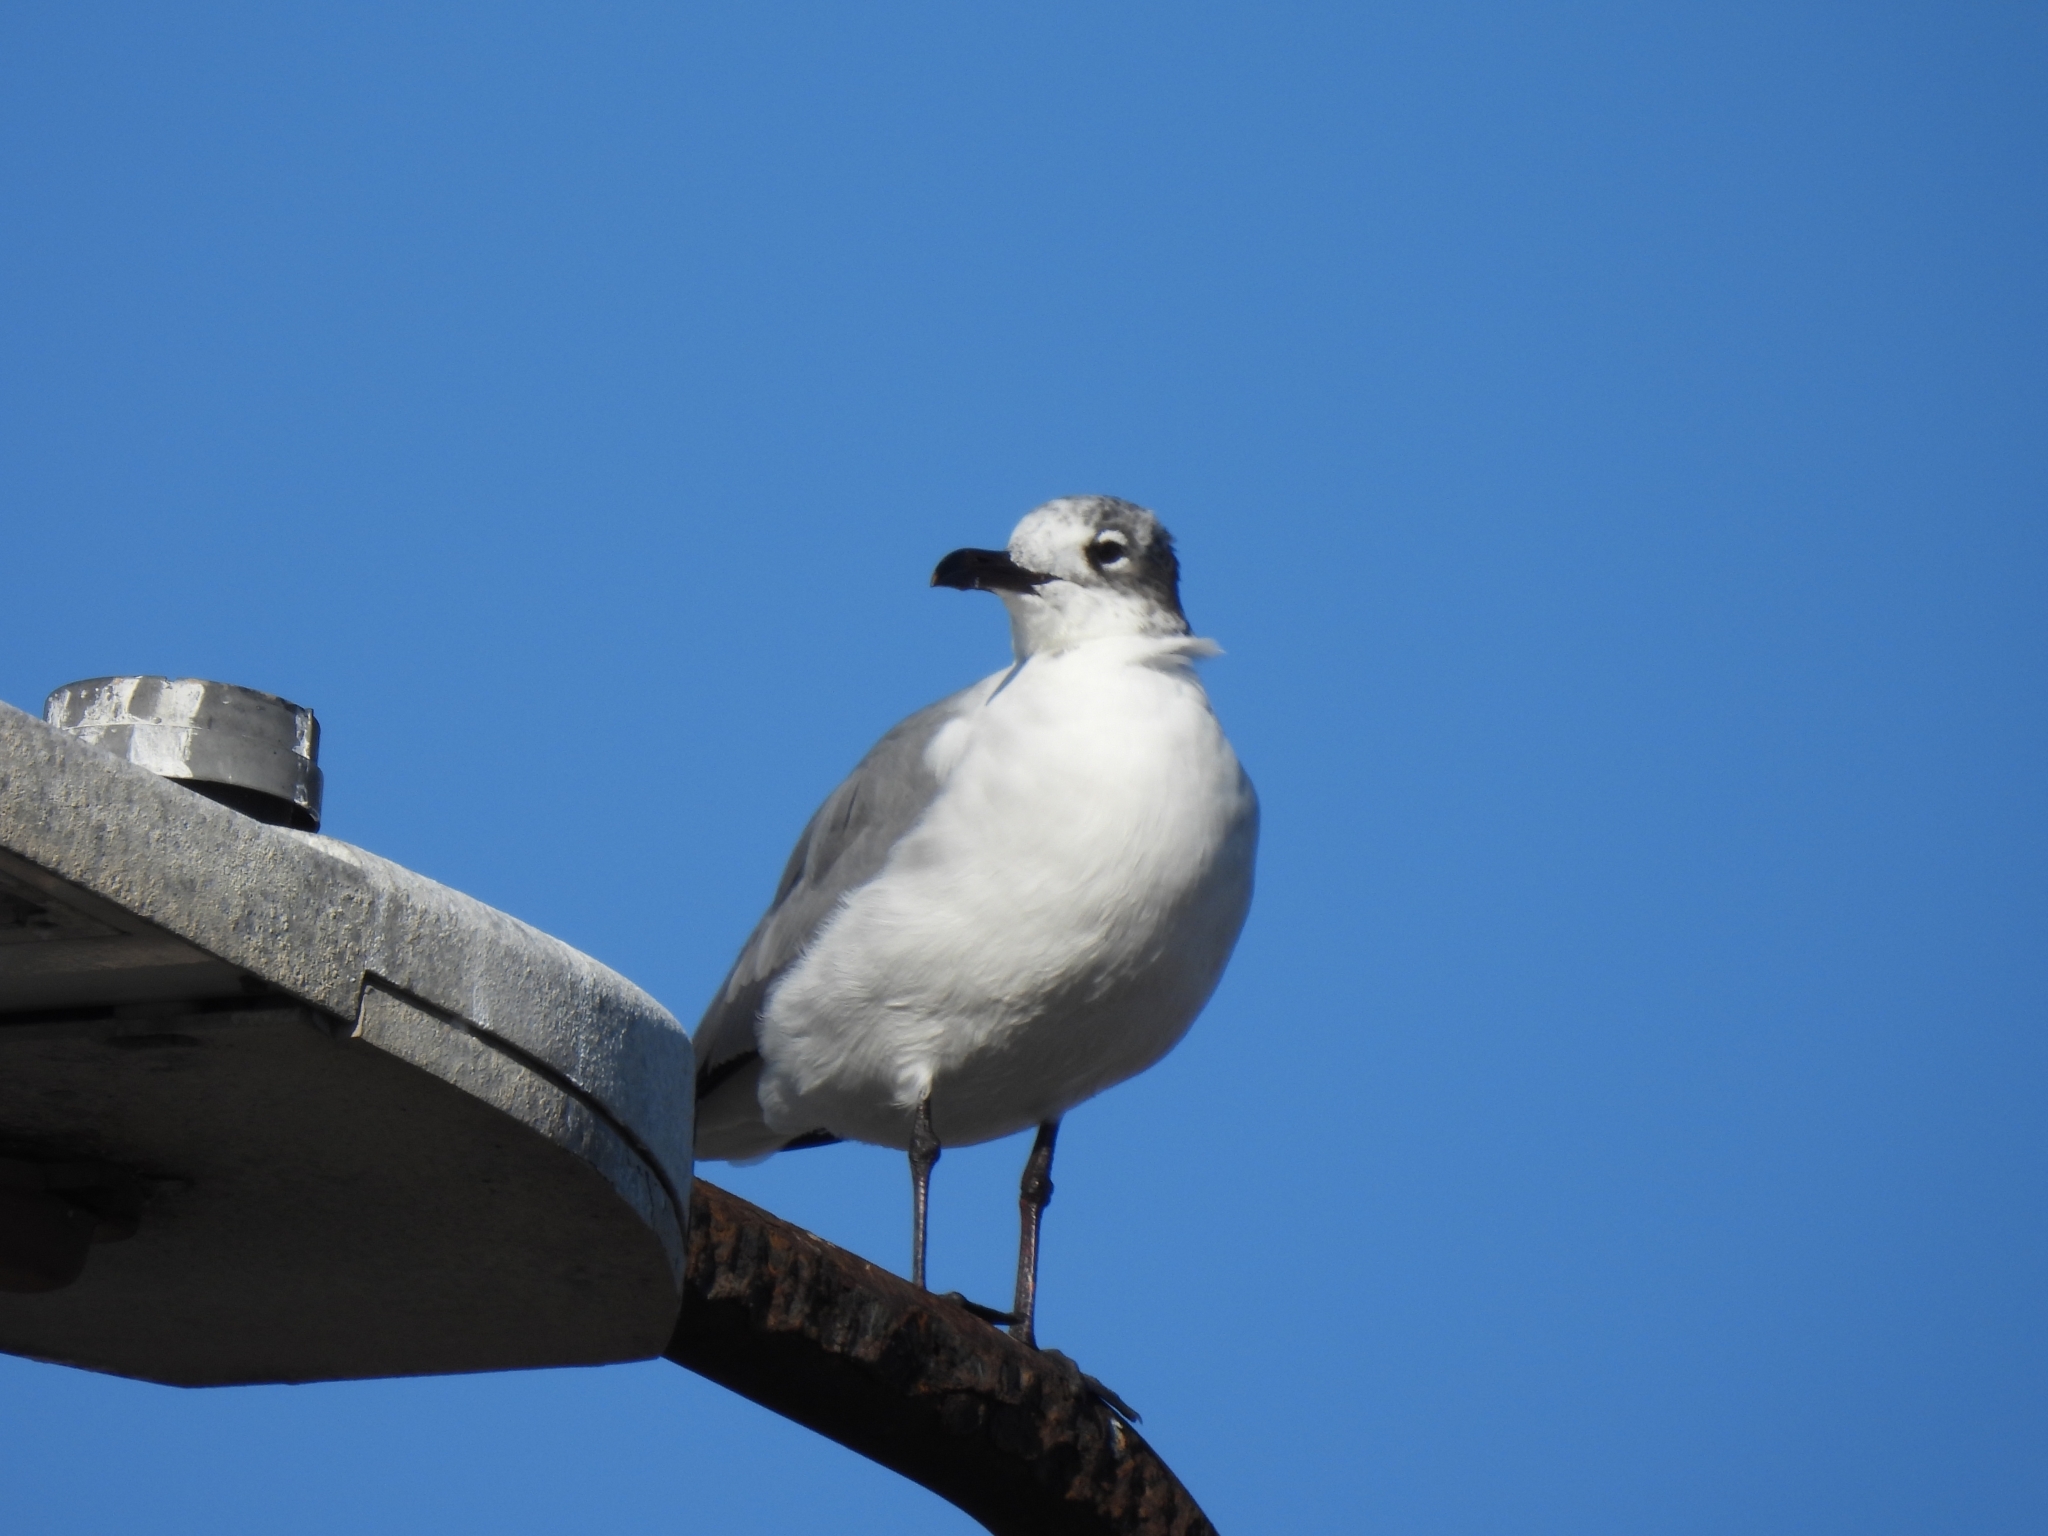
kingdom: Animalia
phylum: Chordata
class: Aves
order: Charadriiformes
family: Laridae
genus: Leucophaeus
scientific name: Leucophaeus atricilla
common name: Laughing gull
